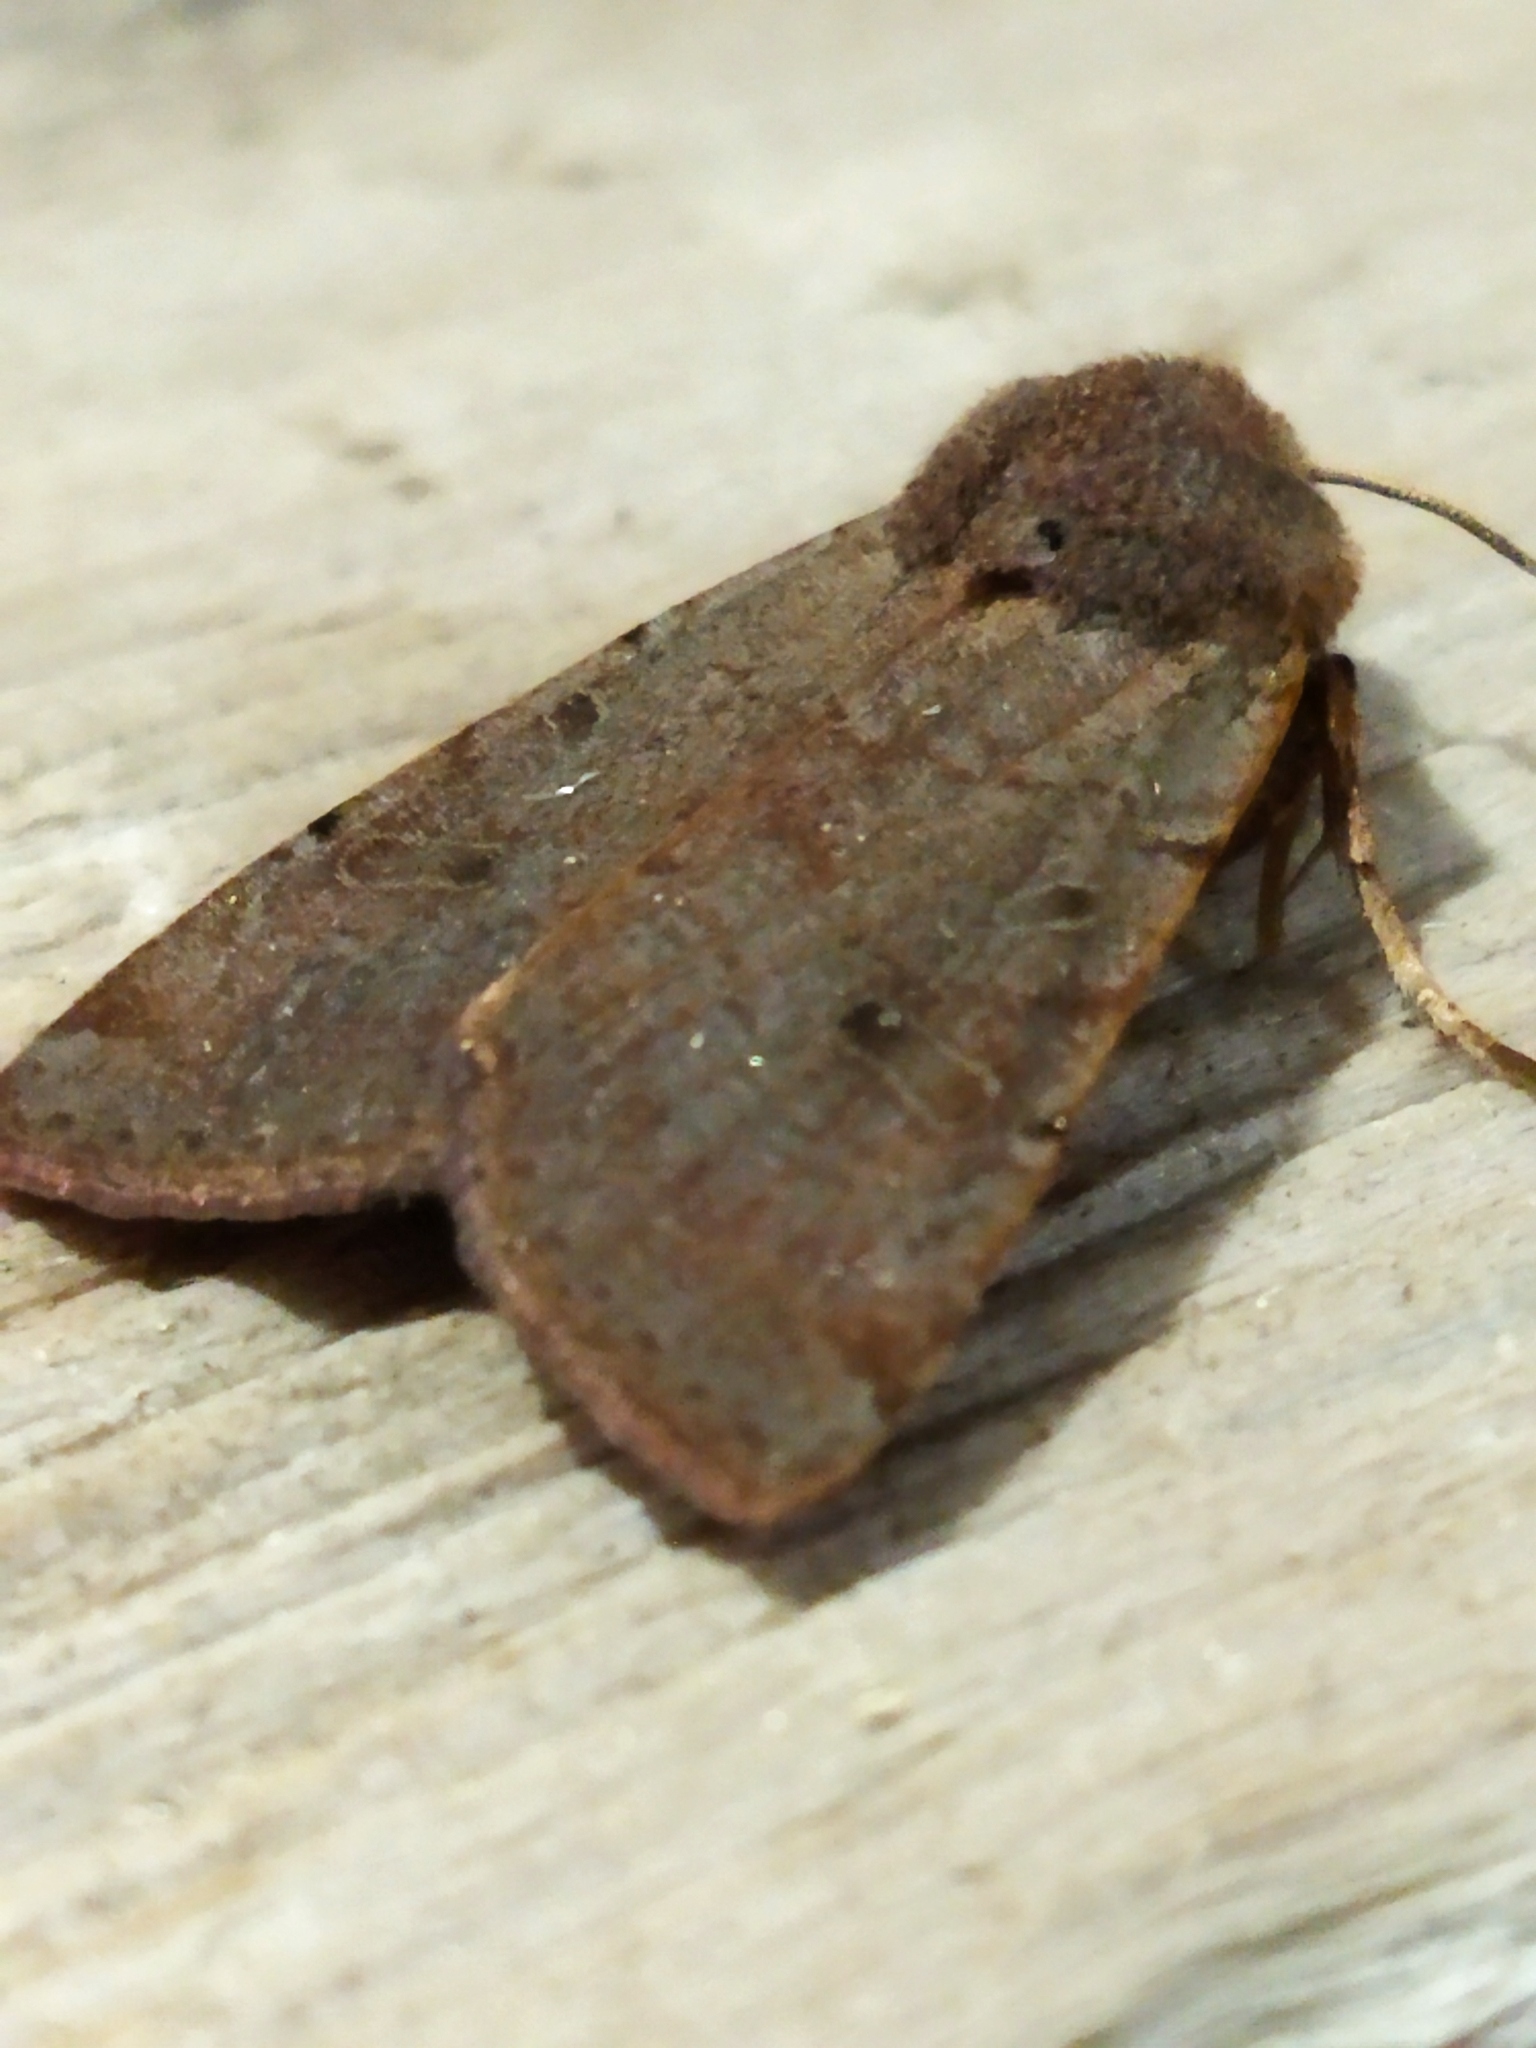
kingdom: Animalia
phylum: Arthropoda
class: Insecta
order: Lepidoptera
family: Noctuidae
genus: Agrochola
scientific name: Agrochola lychnidis
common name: Beaded chestnut
